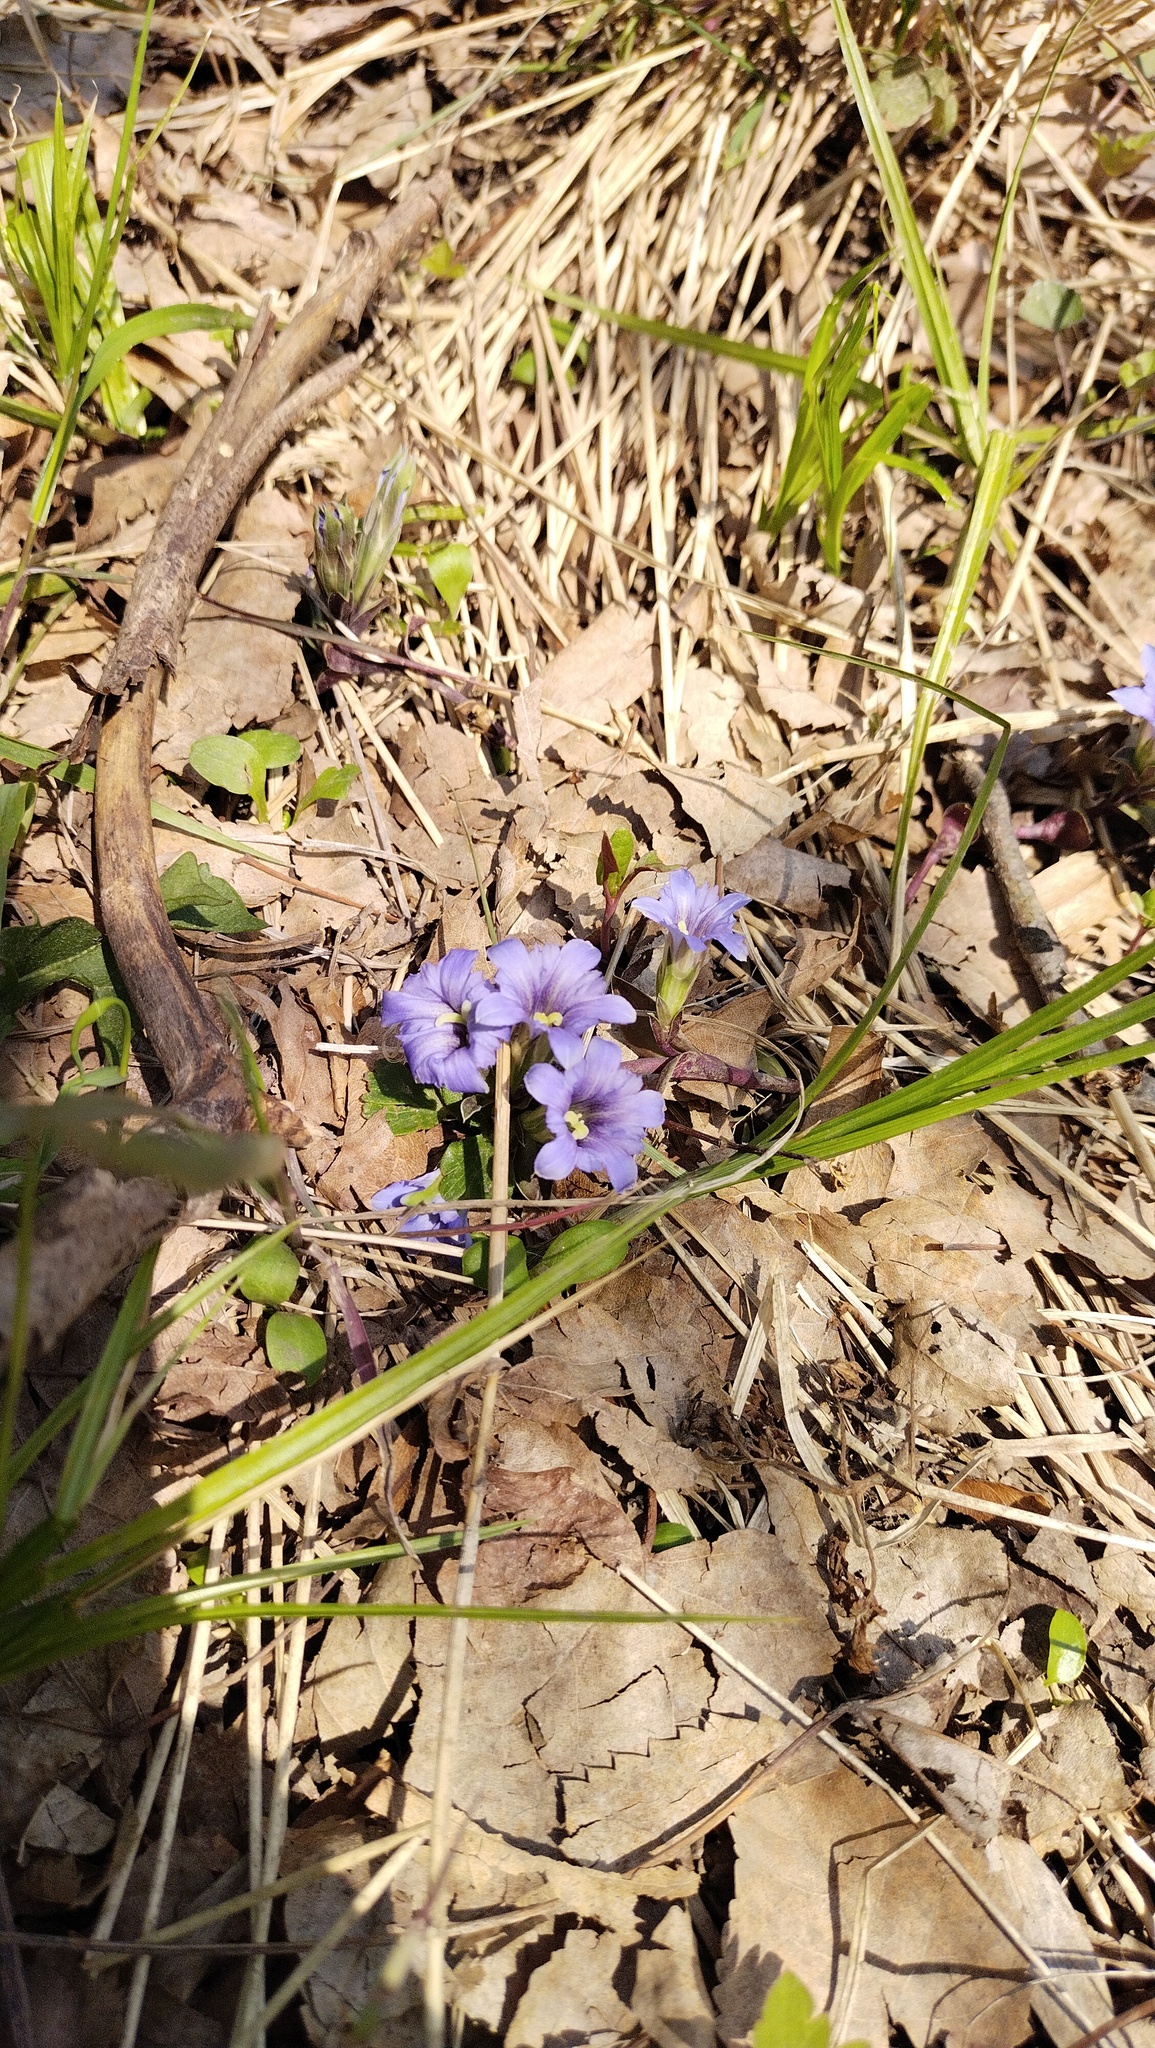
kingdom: Plantae
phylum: Tracheophyta
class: Magnoliopsida
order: Gentianales
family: Gentianaceae
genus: Gentiana
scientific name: Gentiana zollingeri
